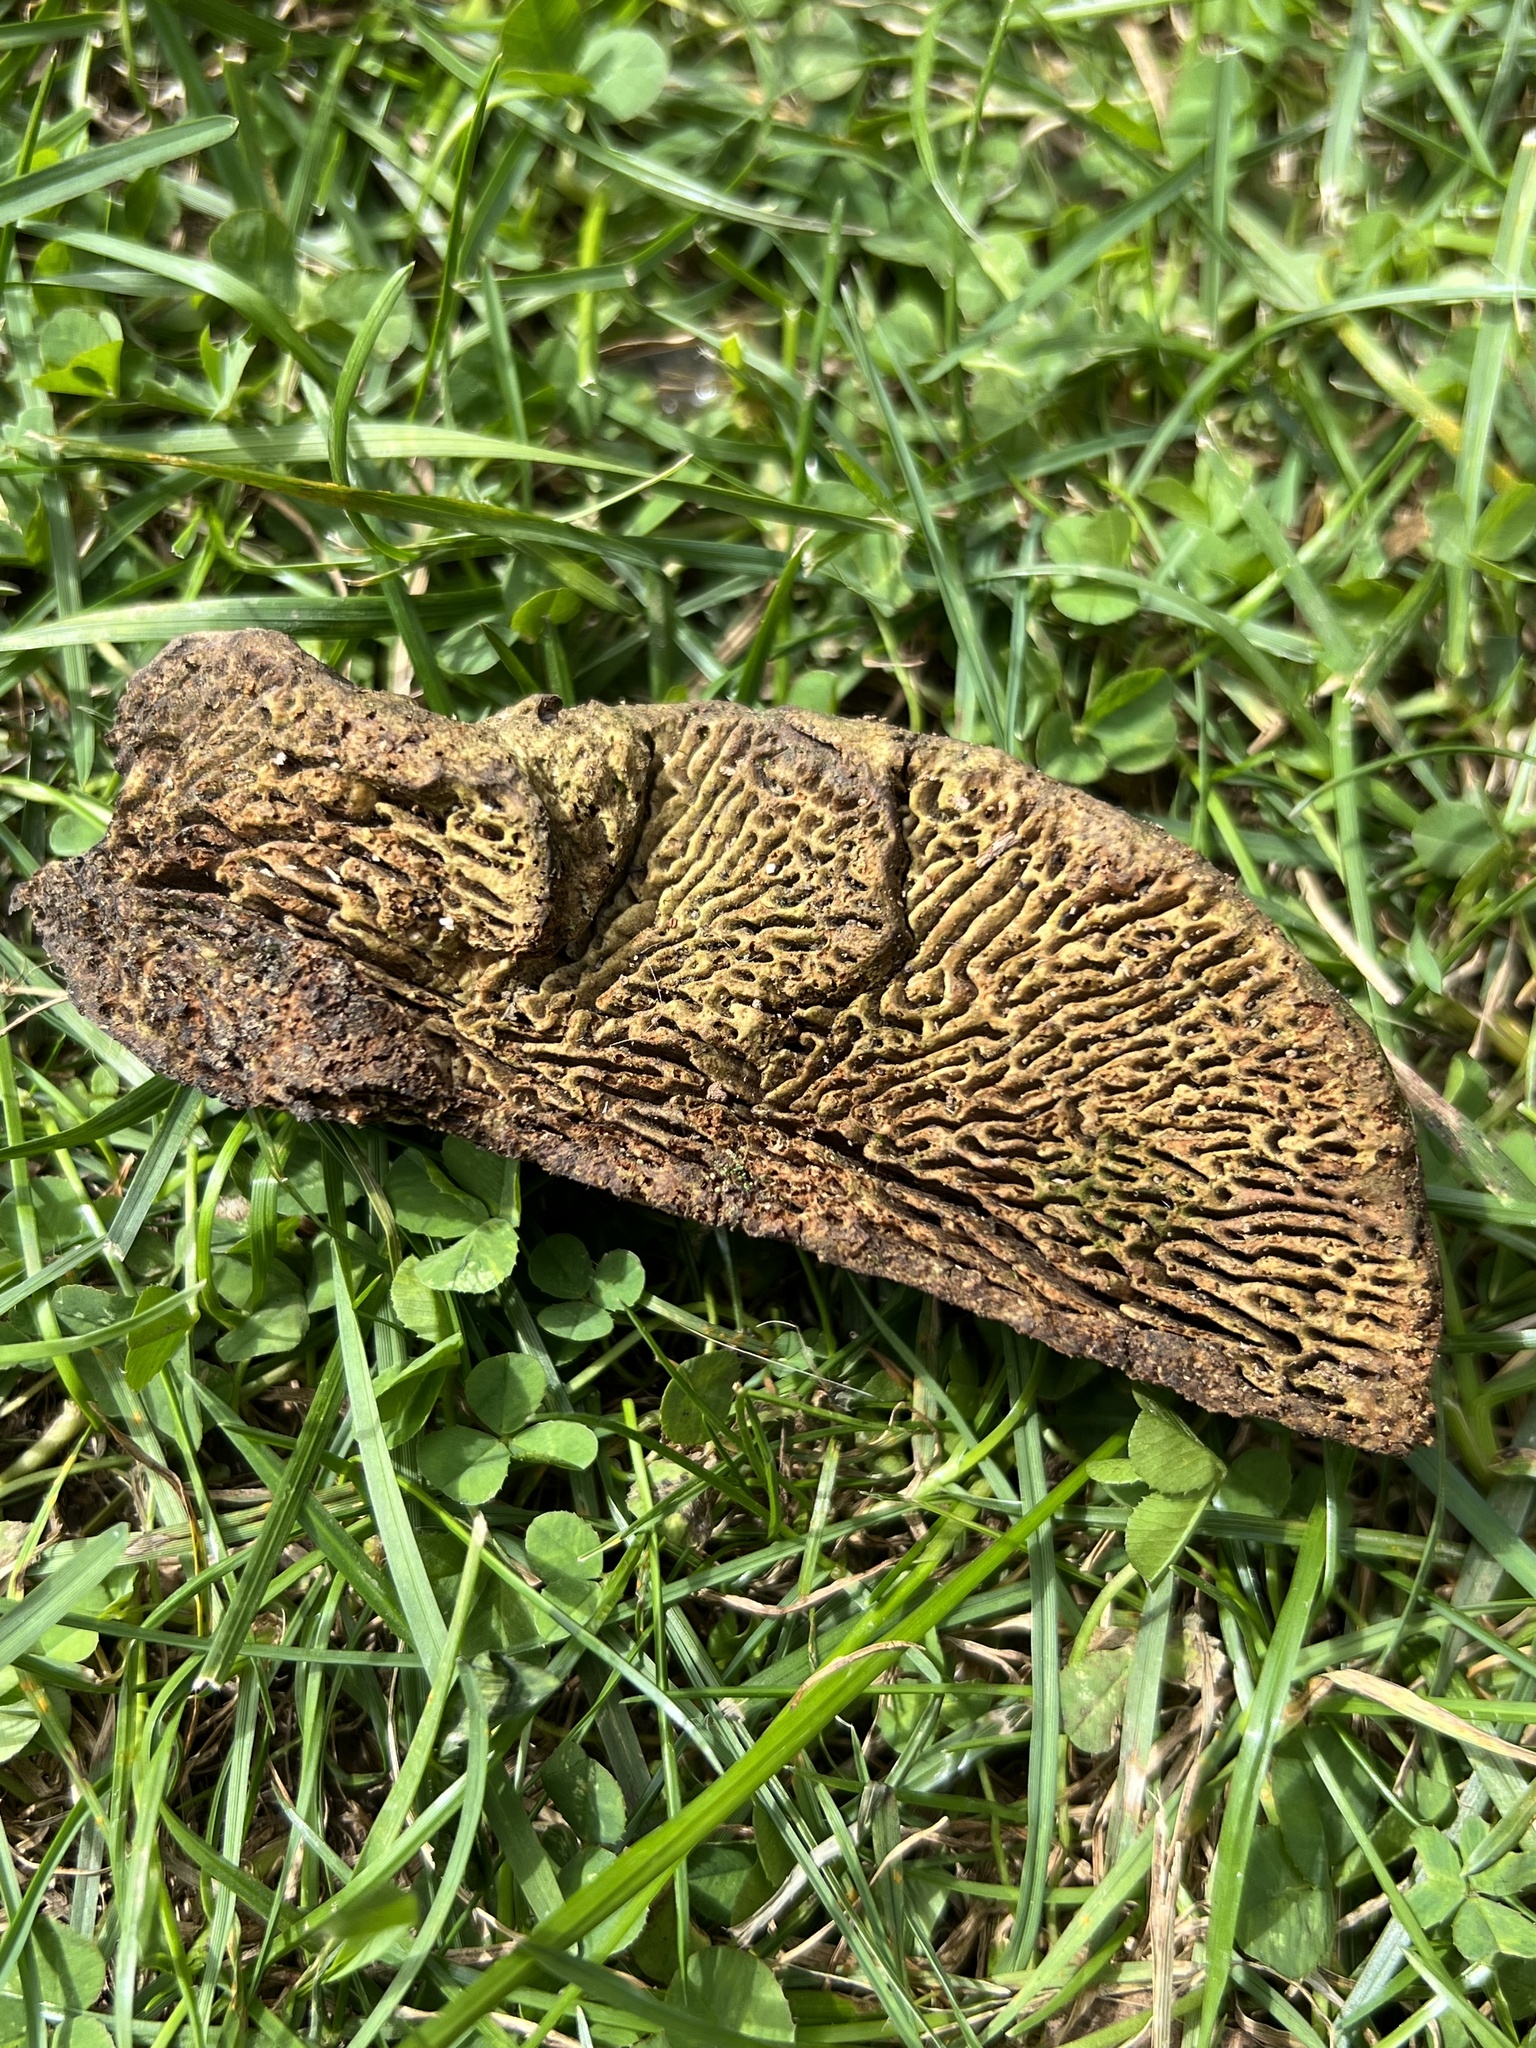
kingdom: Fungi
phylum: Basidiomycota
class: Agaricomycetes
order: Polyporales
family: Fomitopsidaceae
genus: Fomitopsis
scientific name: Fomitopsis
